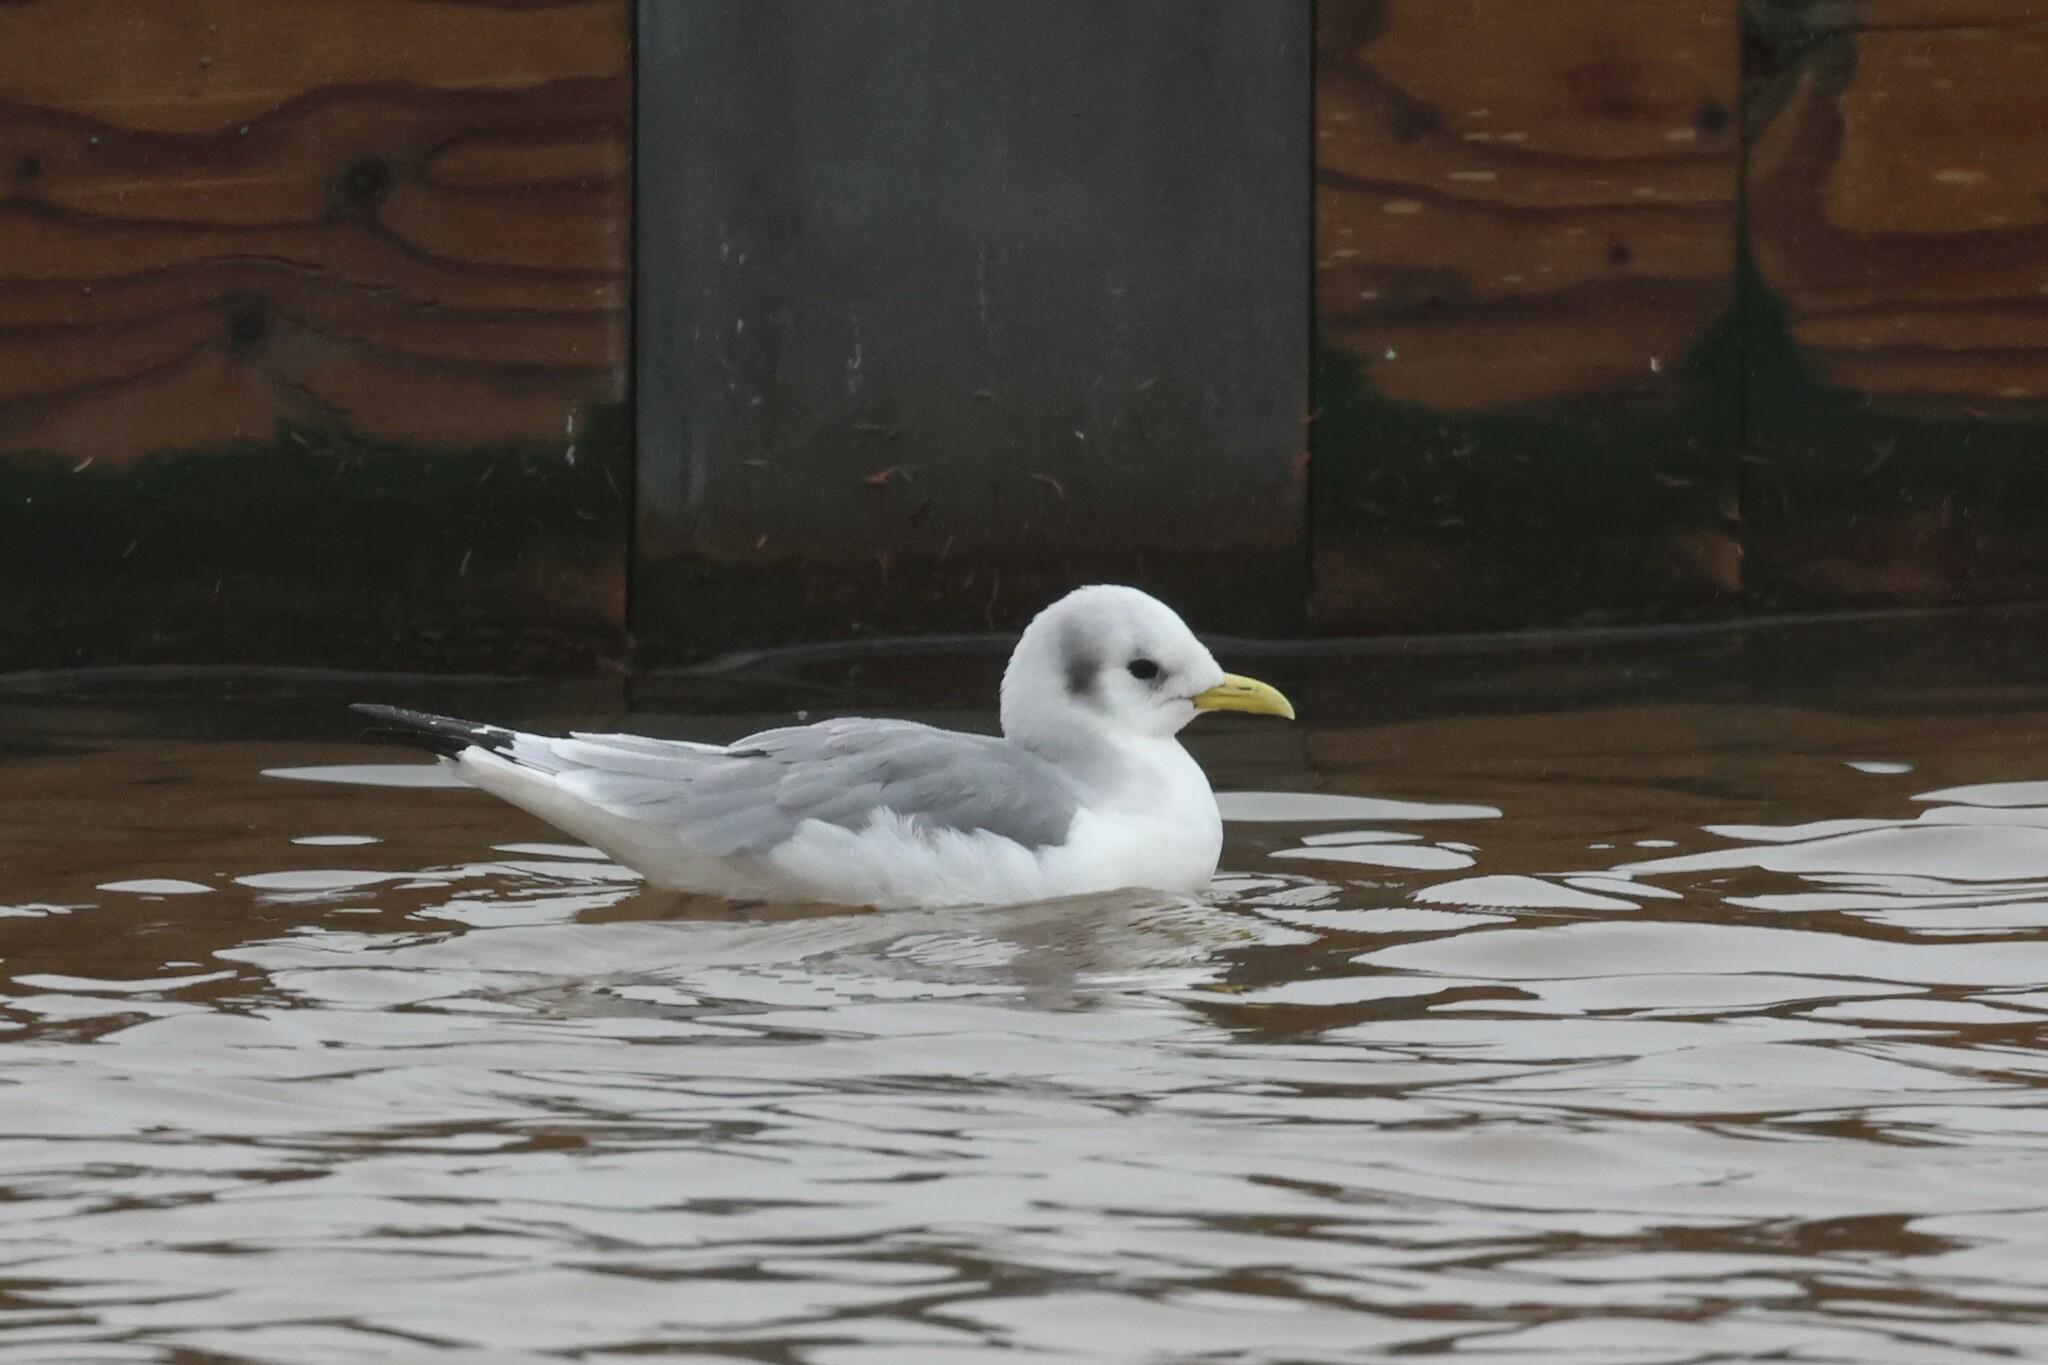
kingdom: Animalia
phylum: Chordata
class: Aves
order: Charadriiformes
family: Laridae
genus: Rissa
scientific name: Rissa tridactyla
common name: Black-legged kittiwake
